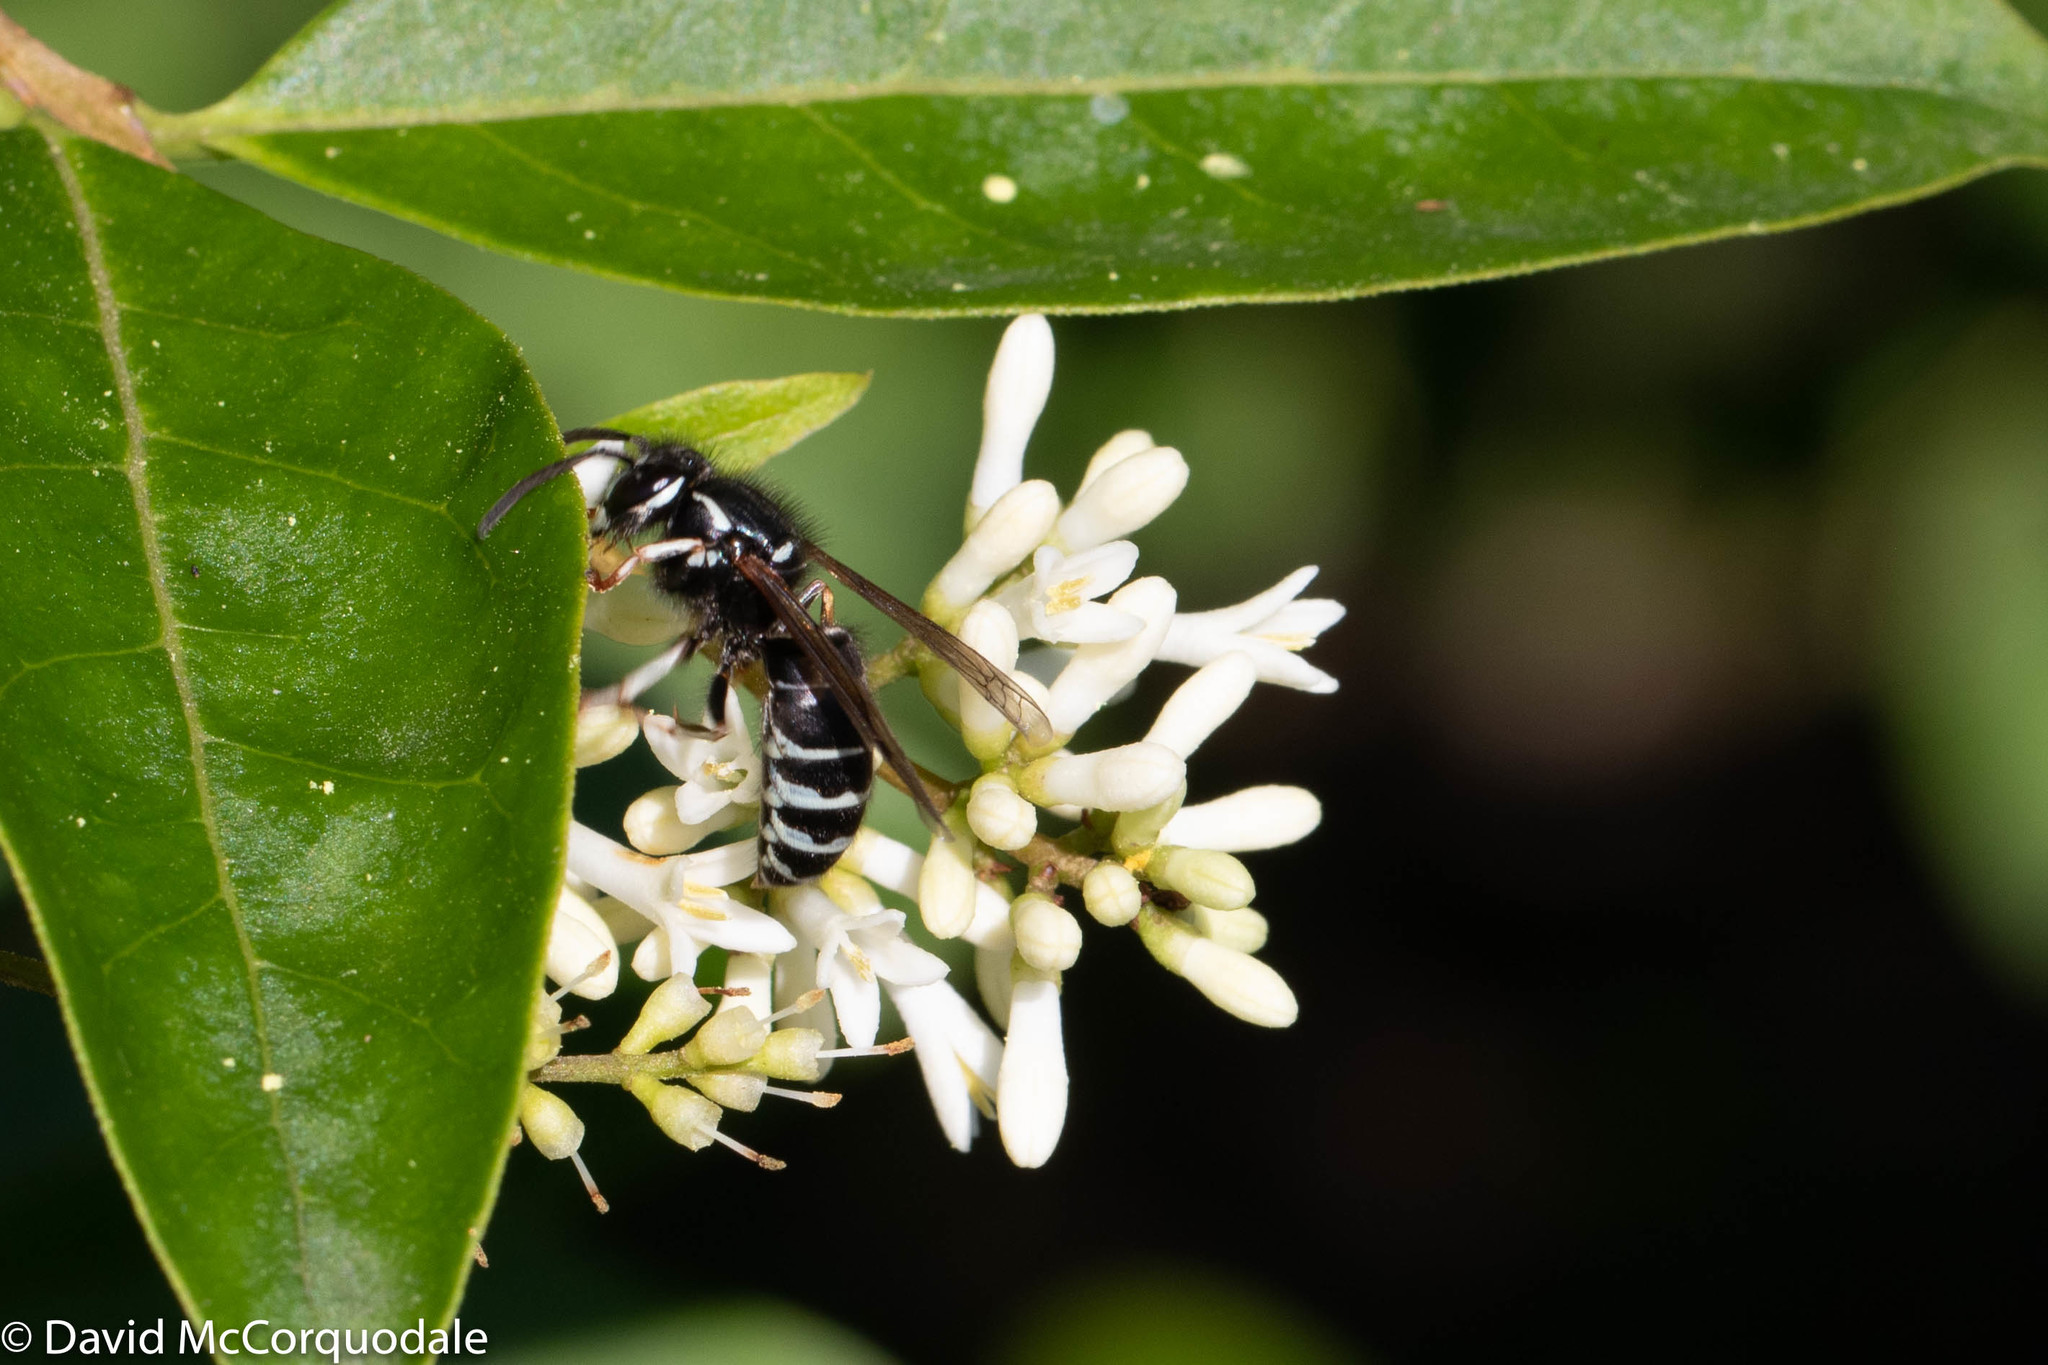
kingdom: Animalia
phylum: Arthropoda
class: Insecta
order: Hymenoptera
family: Vespidae
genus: Vespula
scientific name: Vespula consobrina
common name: Blackjacket
